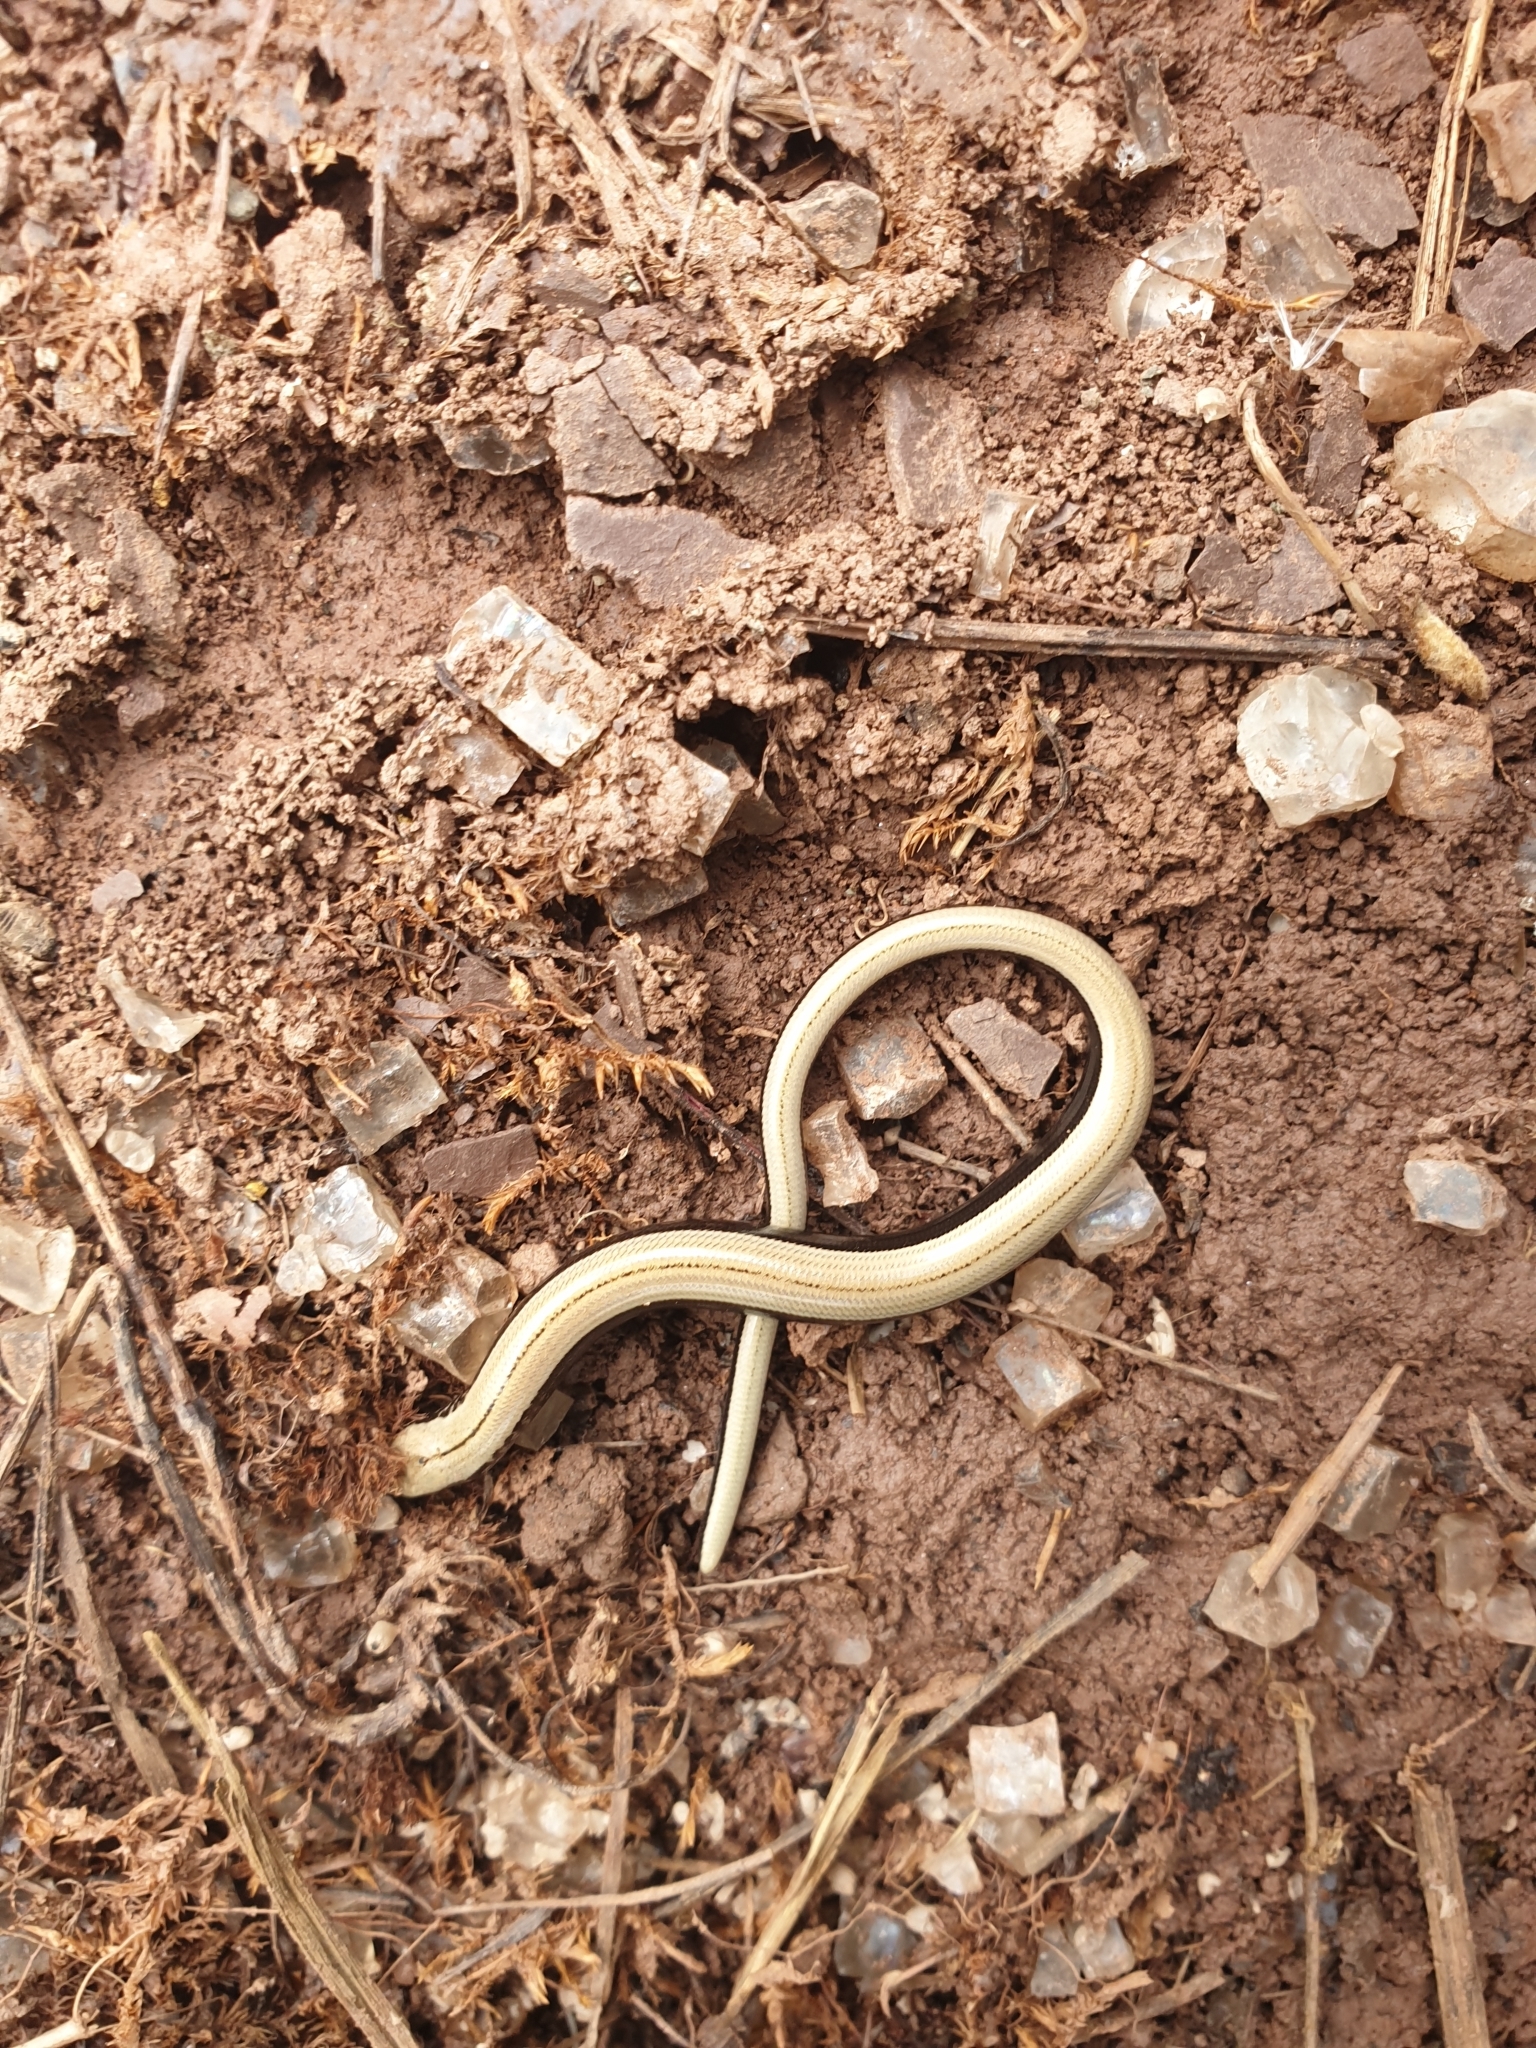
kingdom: Animalia
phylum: Chordata
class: Squamata
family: Anguidae
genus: Anguis
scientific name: Anguis fragilis
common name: Slow worm
